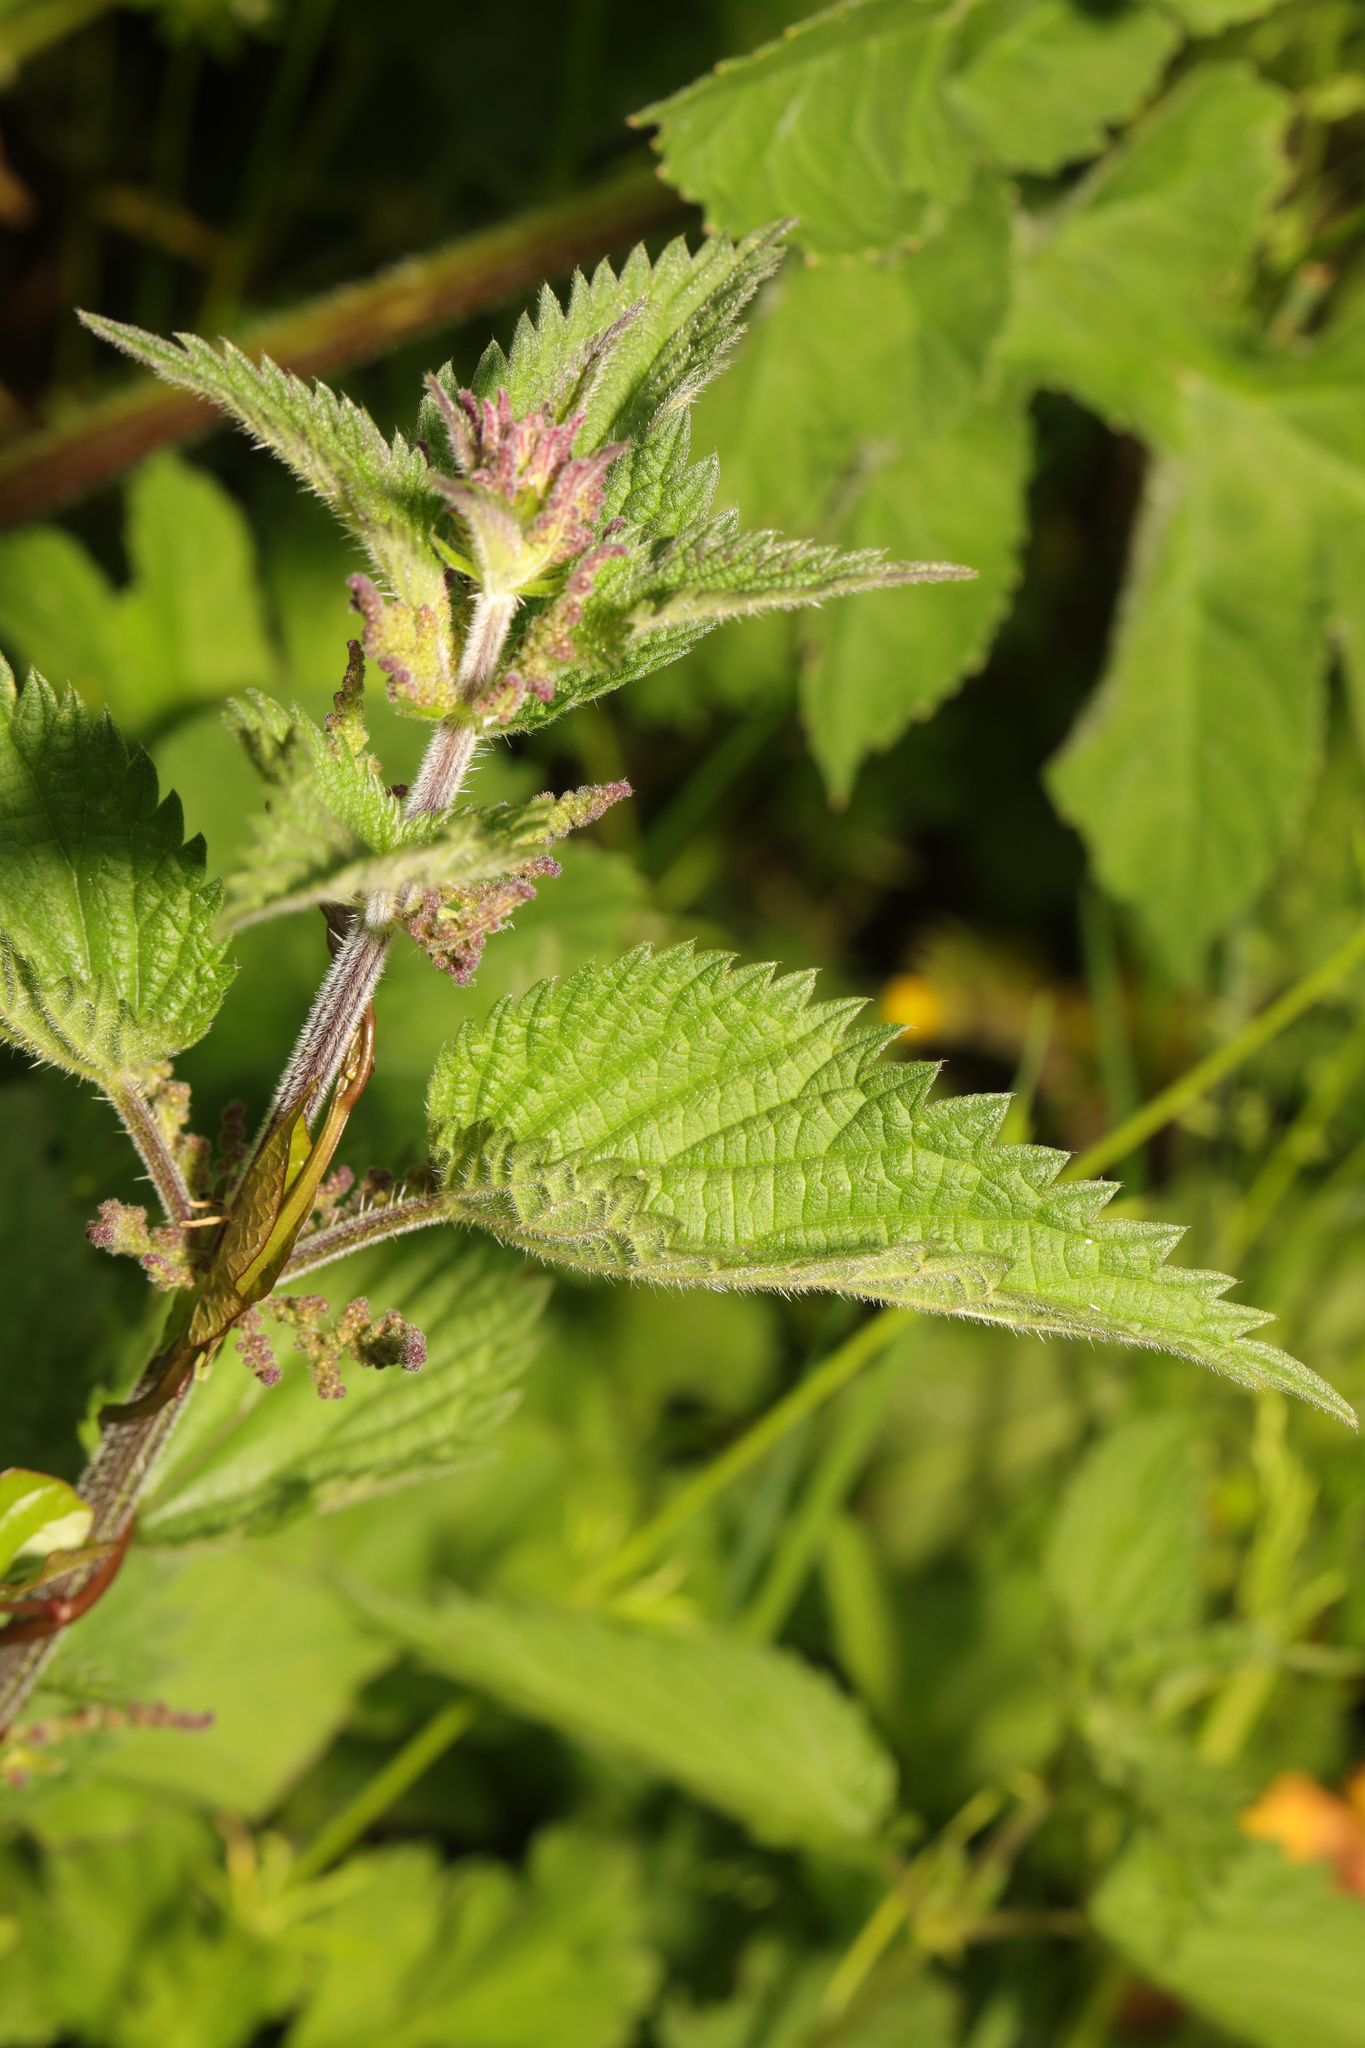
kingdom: Plantae
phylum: Tracheophyta
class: Magnoliopsida
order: Rosales
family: Urticaceae
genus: Urtica
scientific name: Urtica dioica
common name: Common nettle
